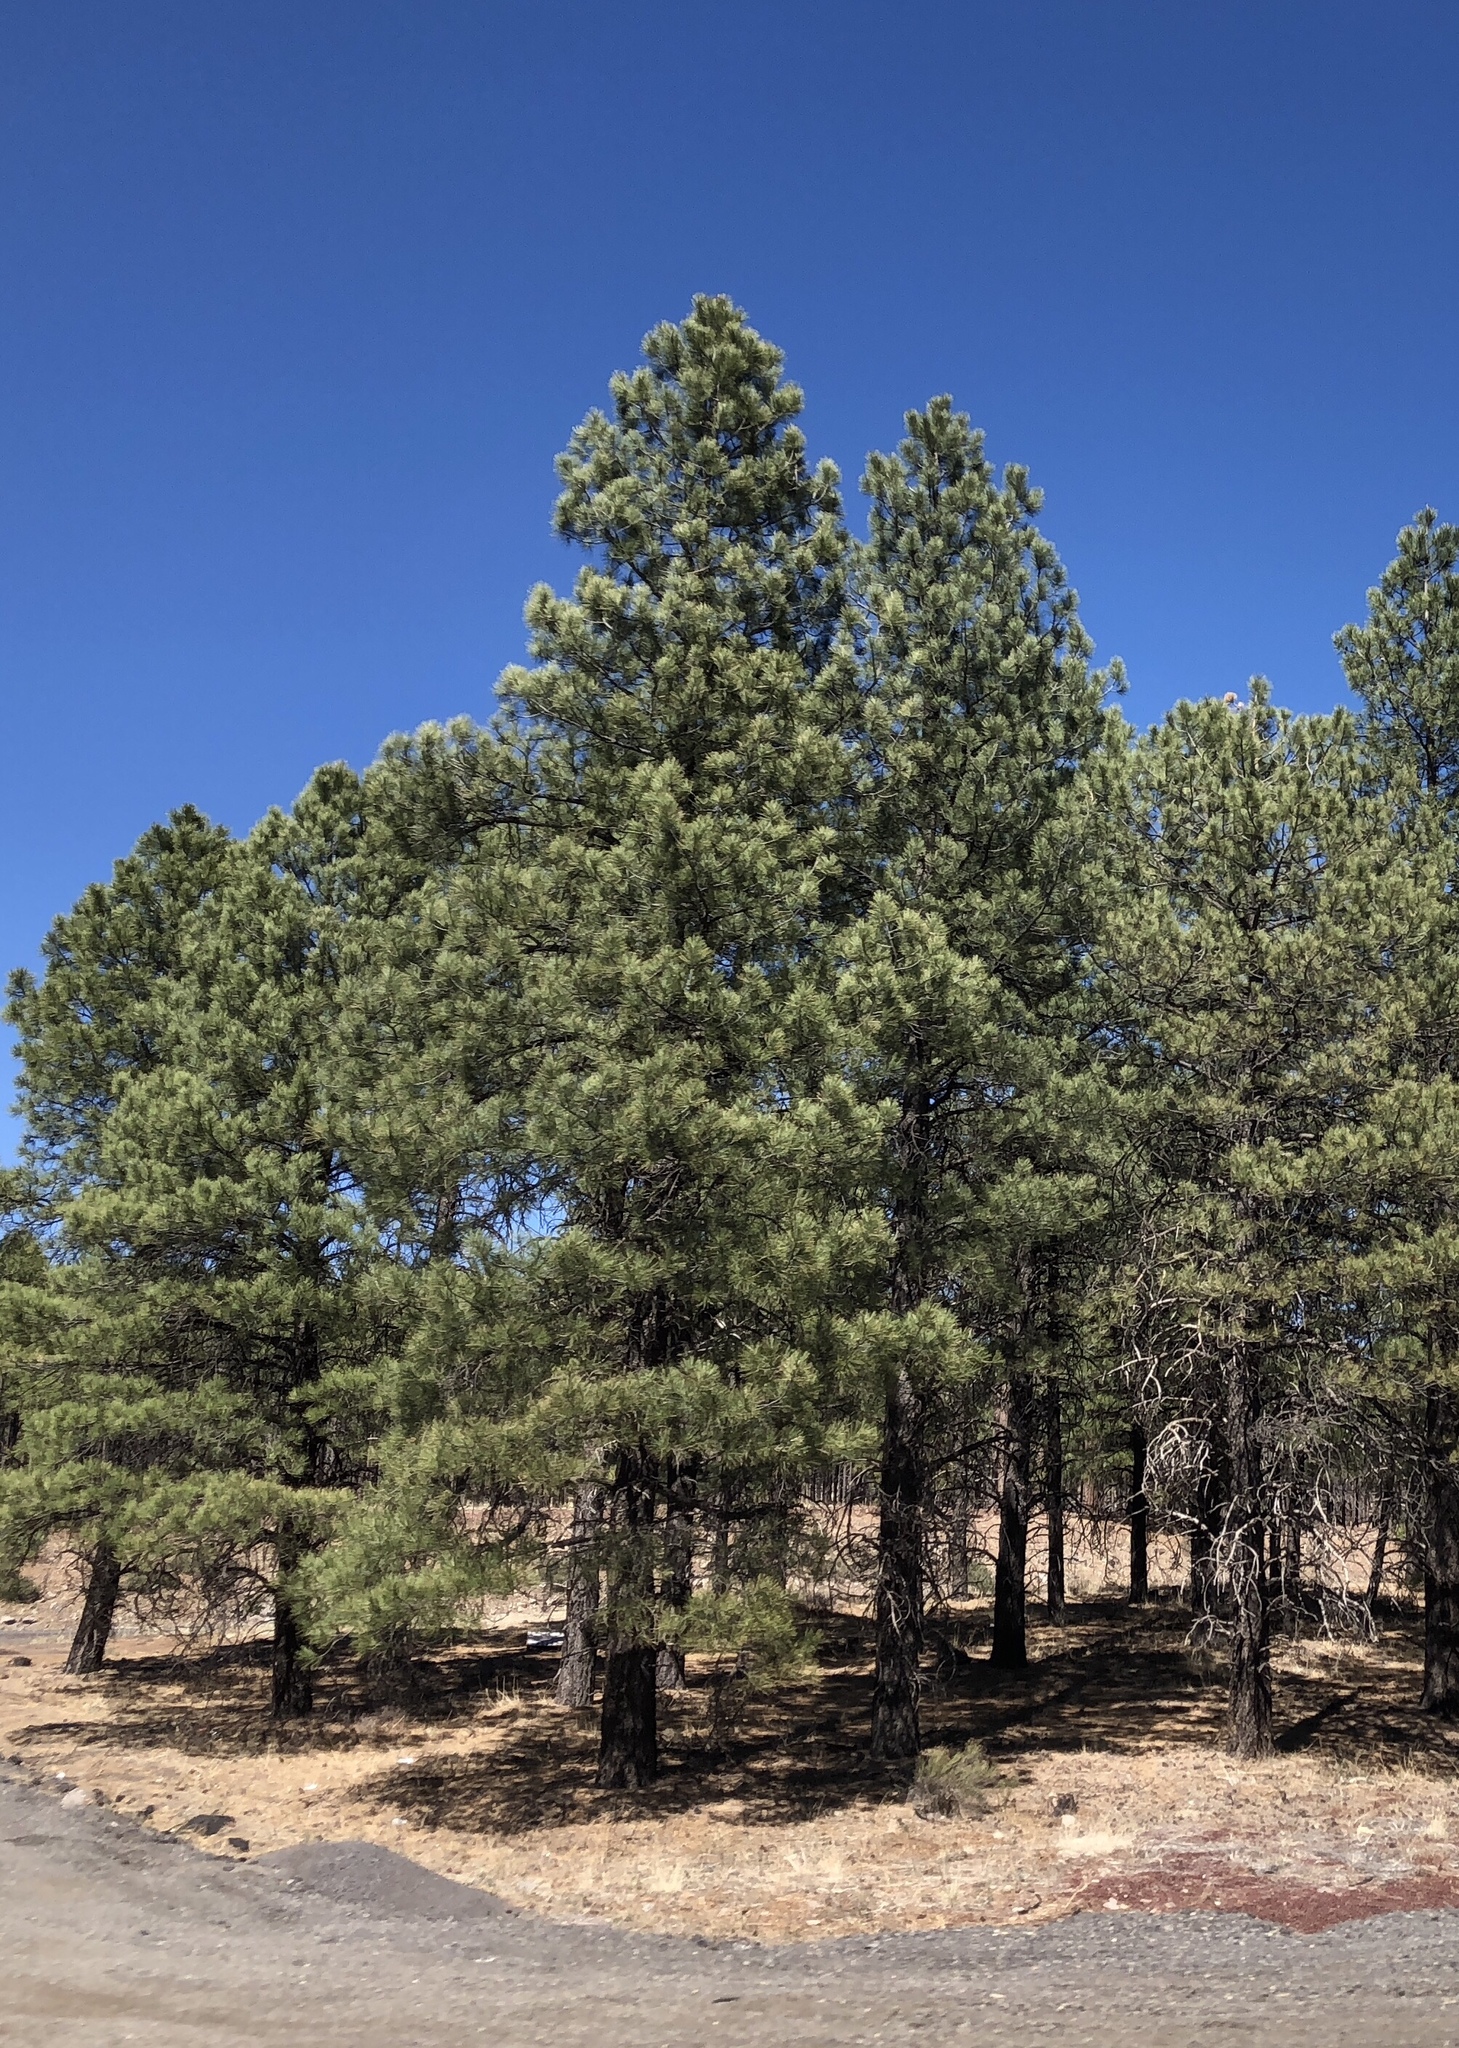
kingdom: Plantae
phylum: Tracheophyta
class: Pinopsida
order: Pinales
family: Pinaceae
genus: Pinus
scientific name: Pinus ponderosa
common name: Western yellow-pine
